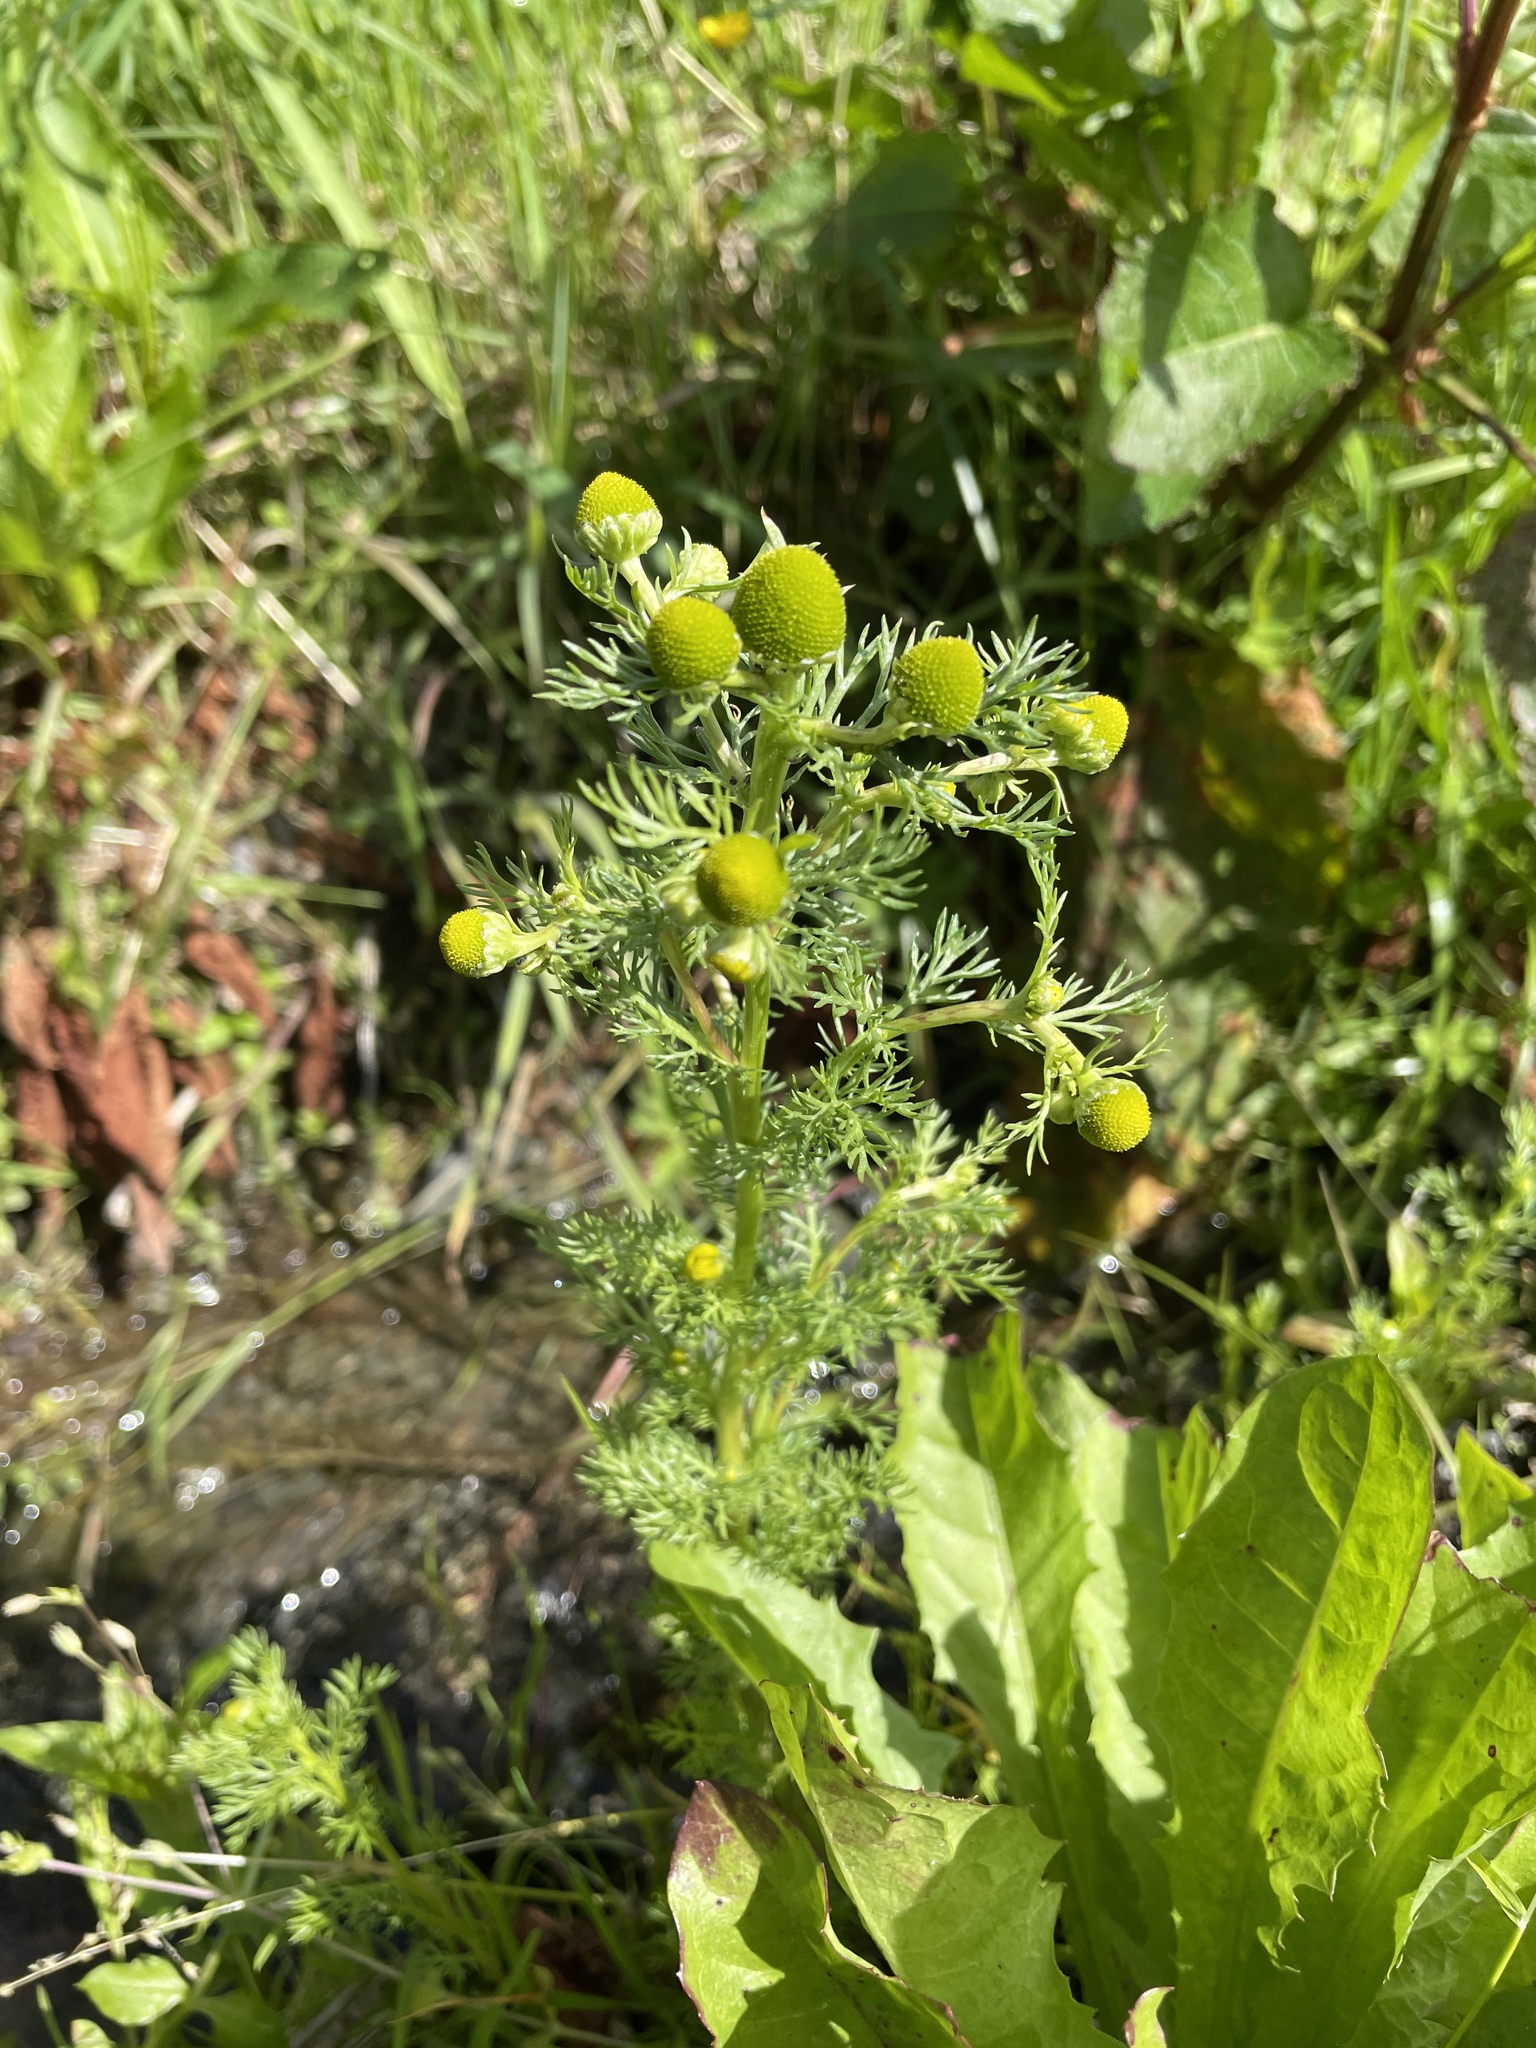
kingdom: Plantae
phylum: Tracheophyta
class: Magnoliopsida
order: Asterales
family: Asteraceae
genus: Matricaria
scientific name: Matricaria discoidea
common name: Disc mayweed
